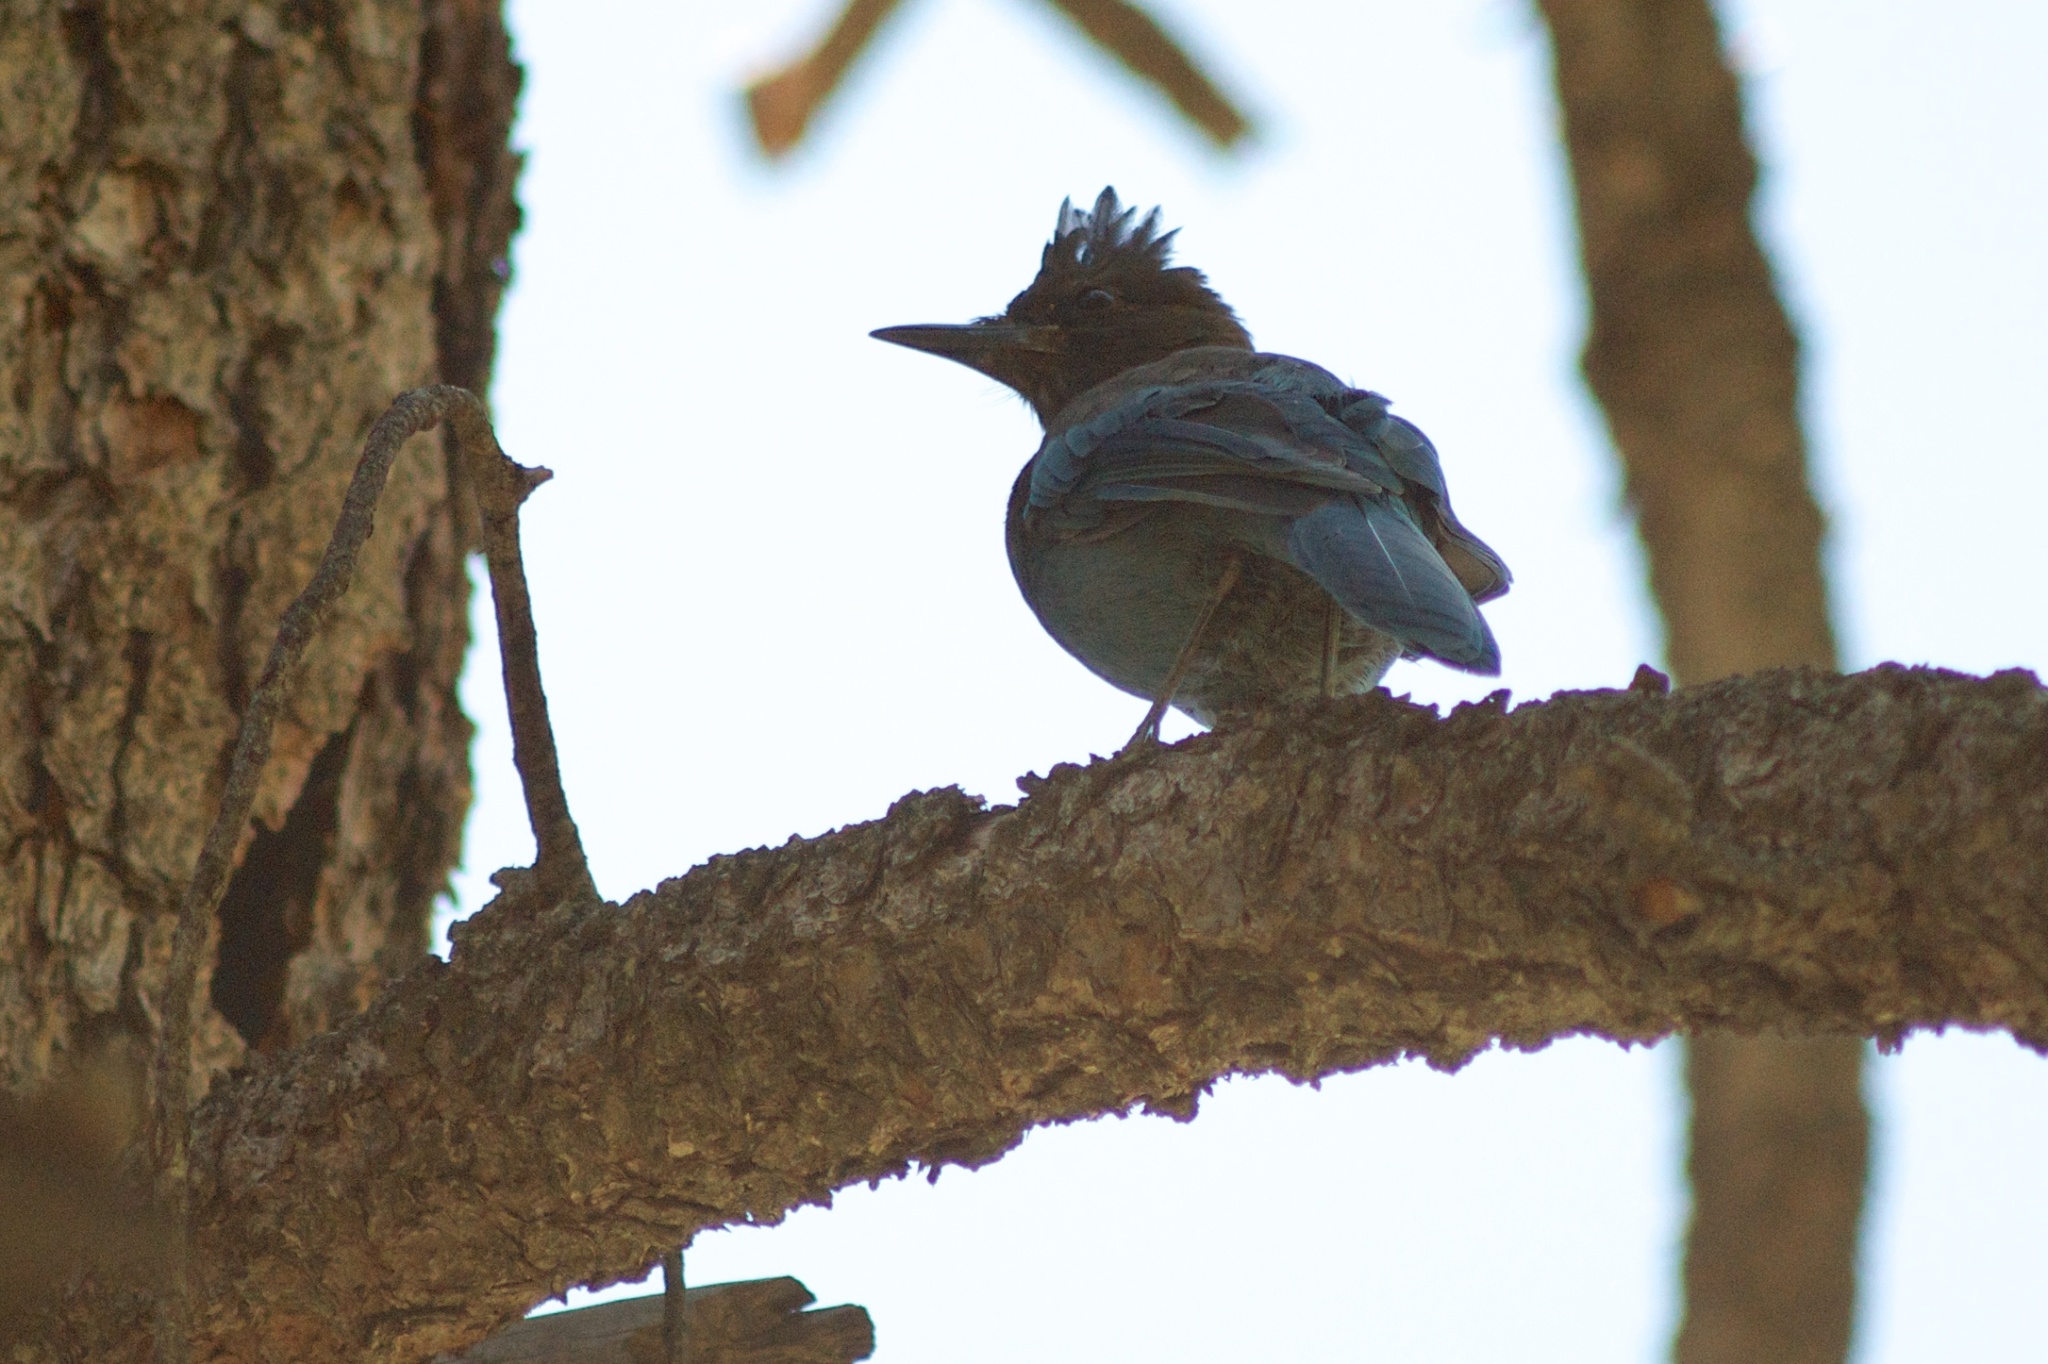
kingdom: Animalia
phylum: Chordata
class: Aves
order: Passeriformes
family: Corvidae
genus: Cyanocitta
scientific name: Cyanocitta stelleri
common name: Steller's jay
